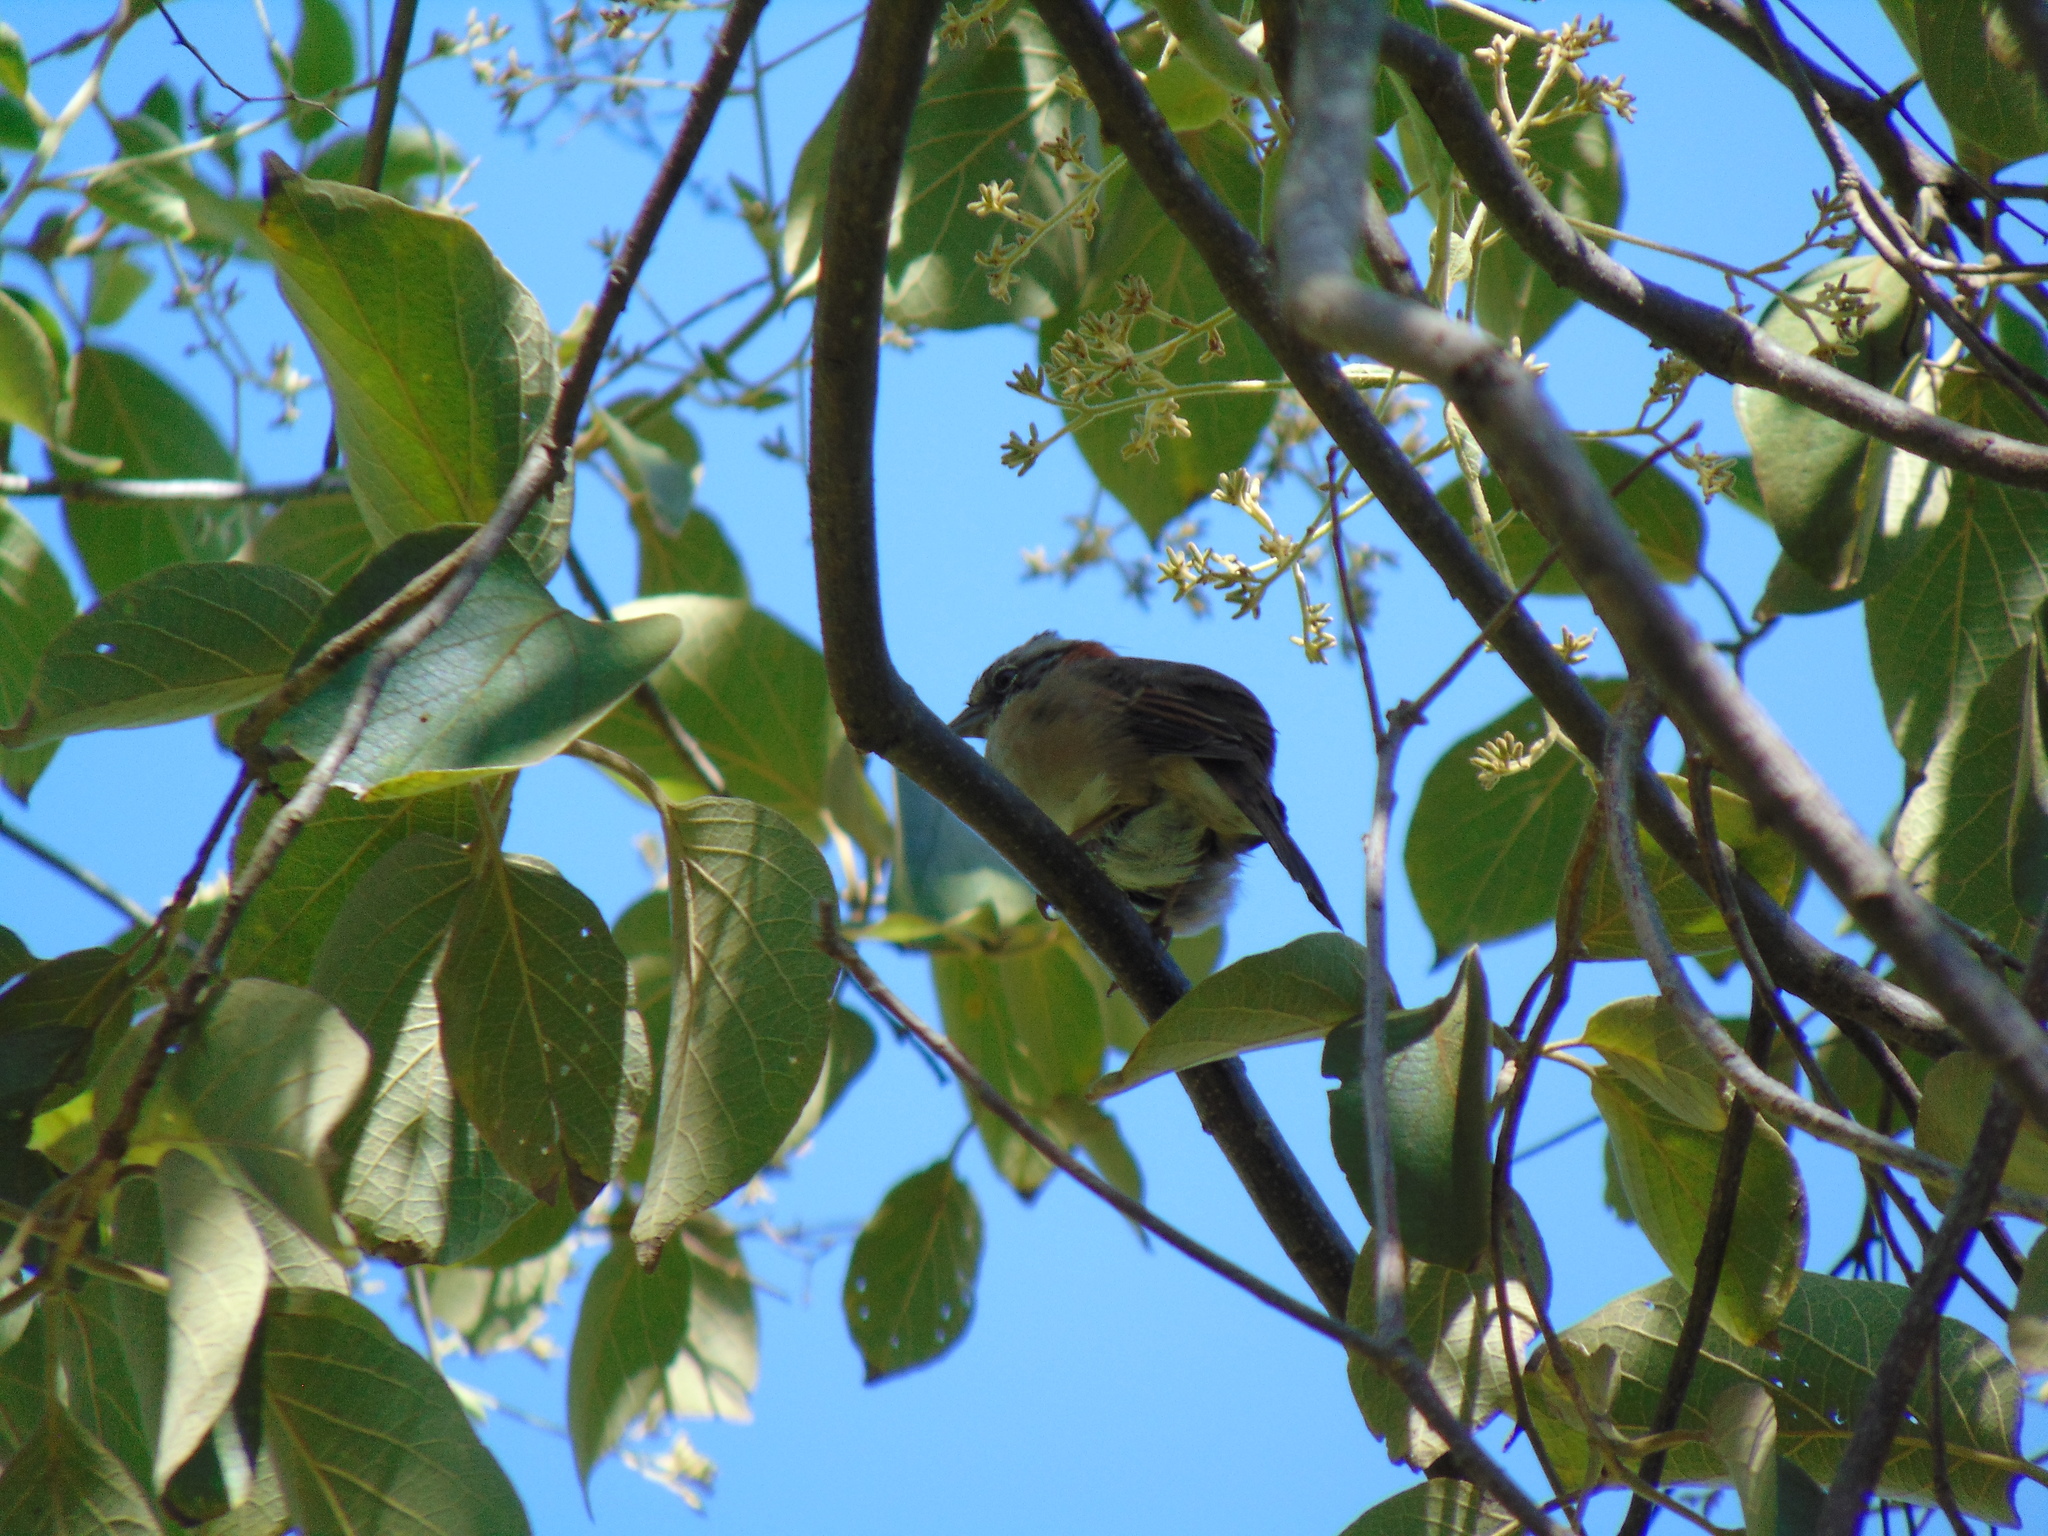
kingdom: Animalia
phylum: Chordata
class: Aves
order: Passeriformes
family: Passerellidae
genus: Zonotrichia
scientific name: Zonotrichia capensis
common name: Rufous-collared sparrow
